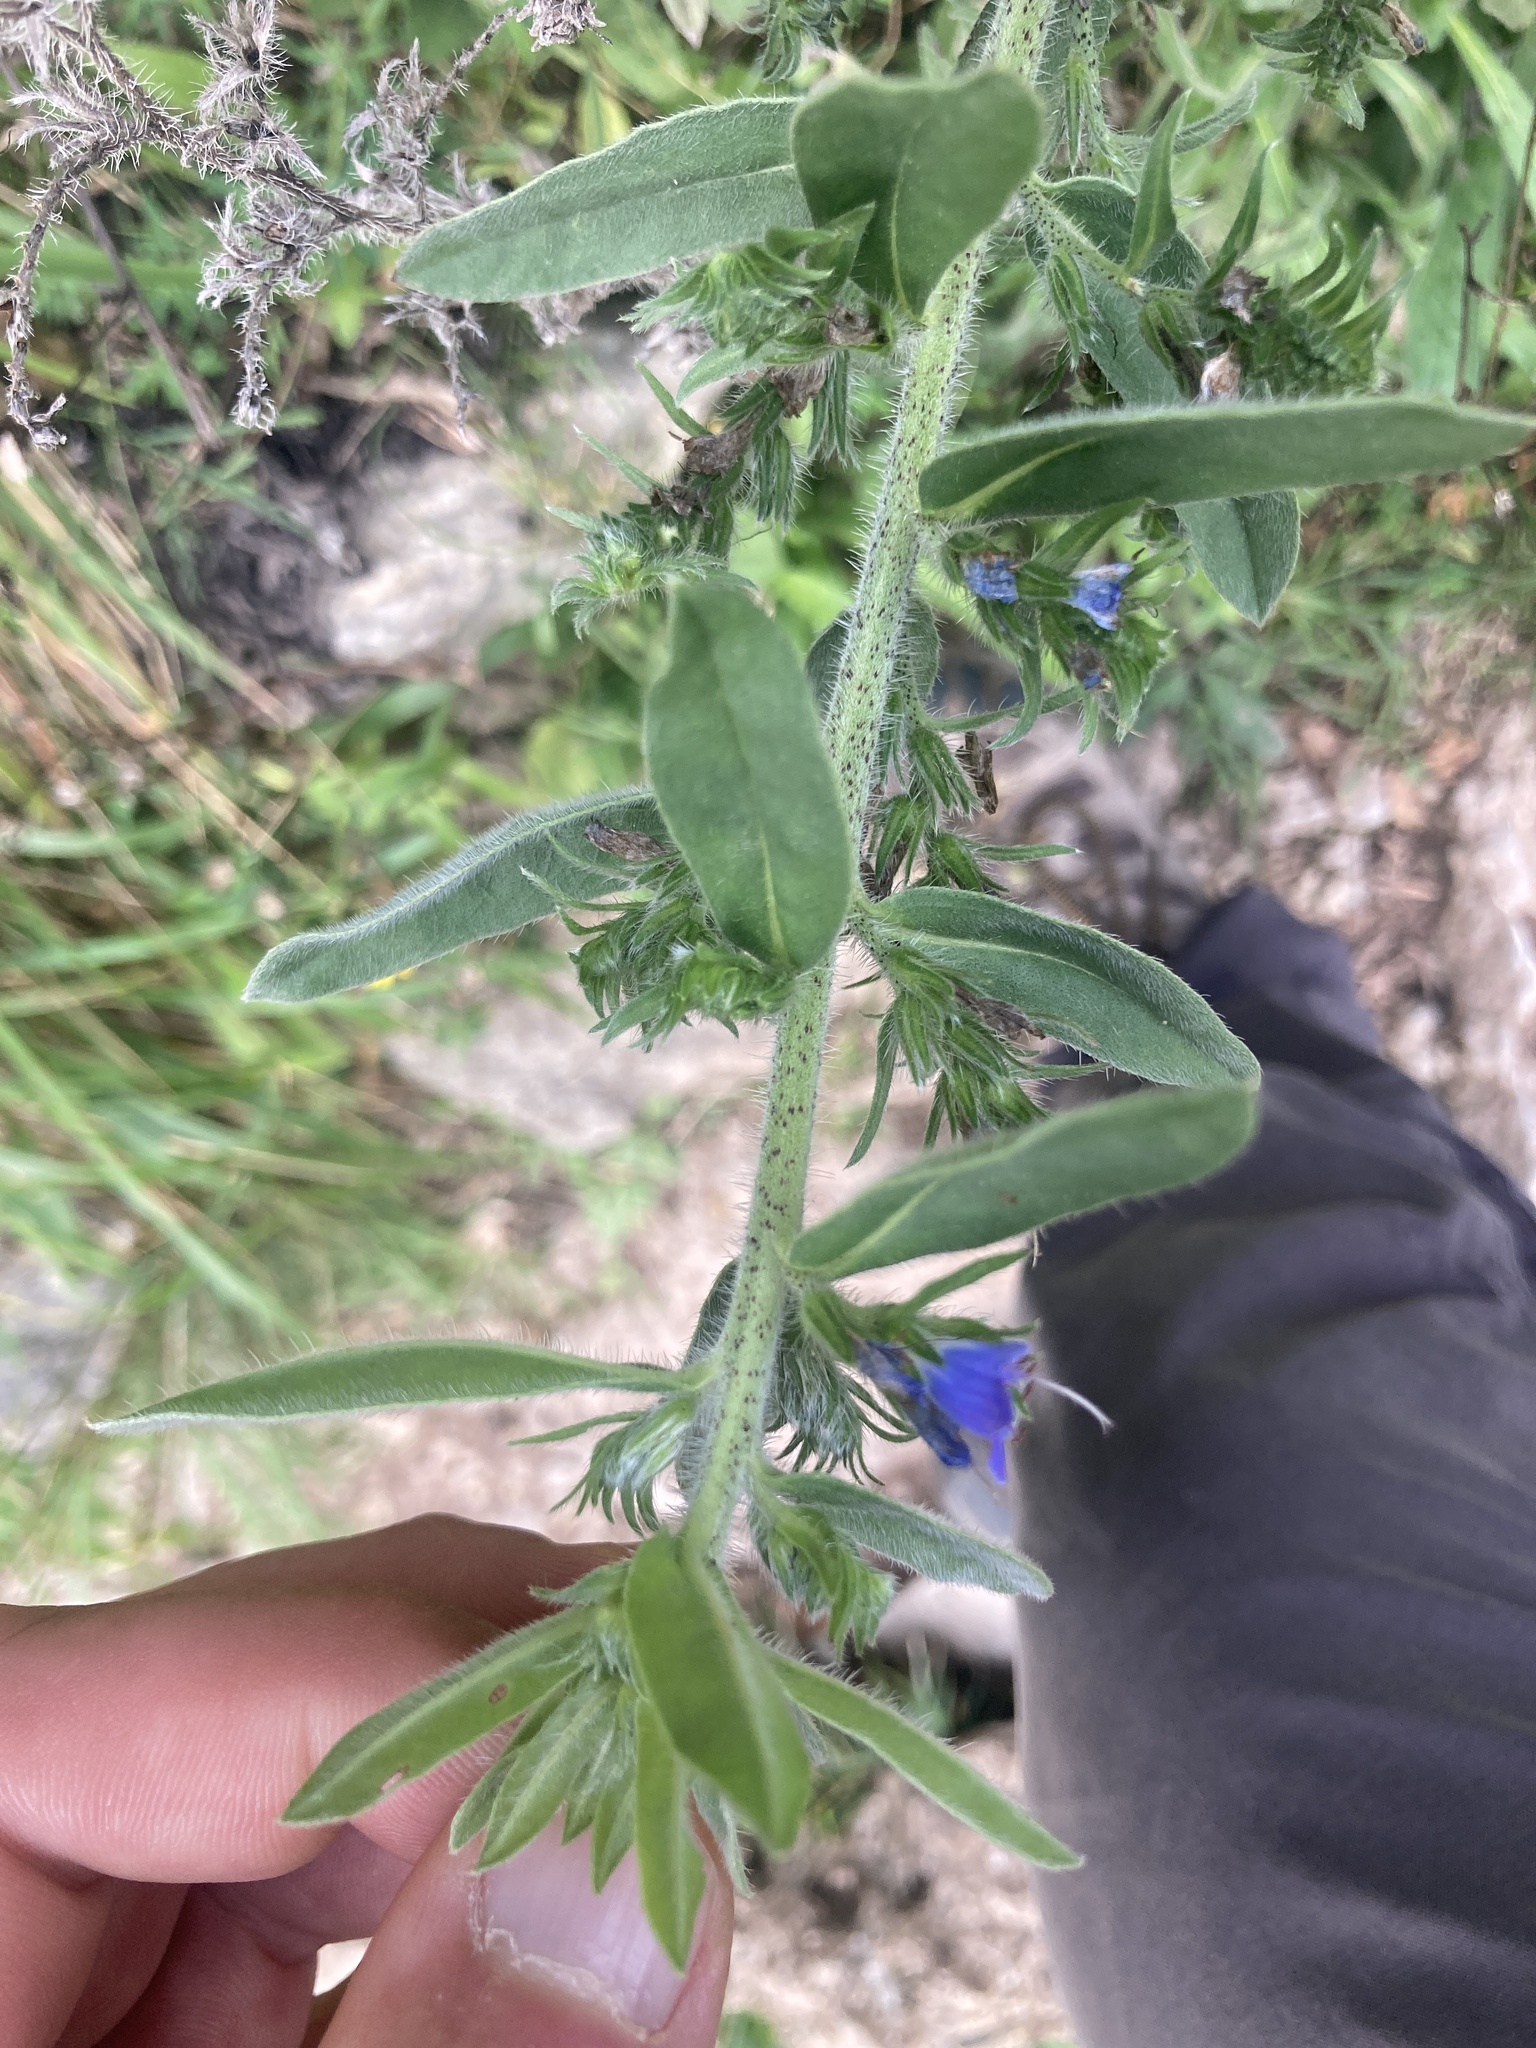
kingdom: Plantae
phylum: Tracheophyta
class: Magnoliopsida
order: Boraginales
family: Boraginaceae
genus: Echium
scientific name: Echium vulgare
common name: Common viper's bugloss
